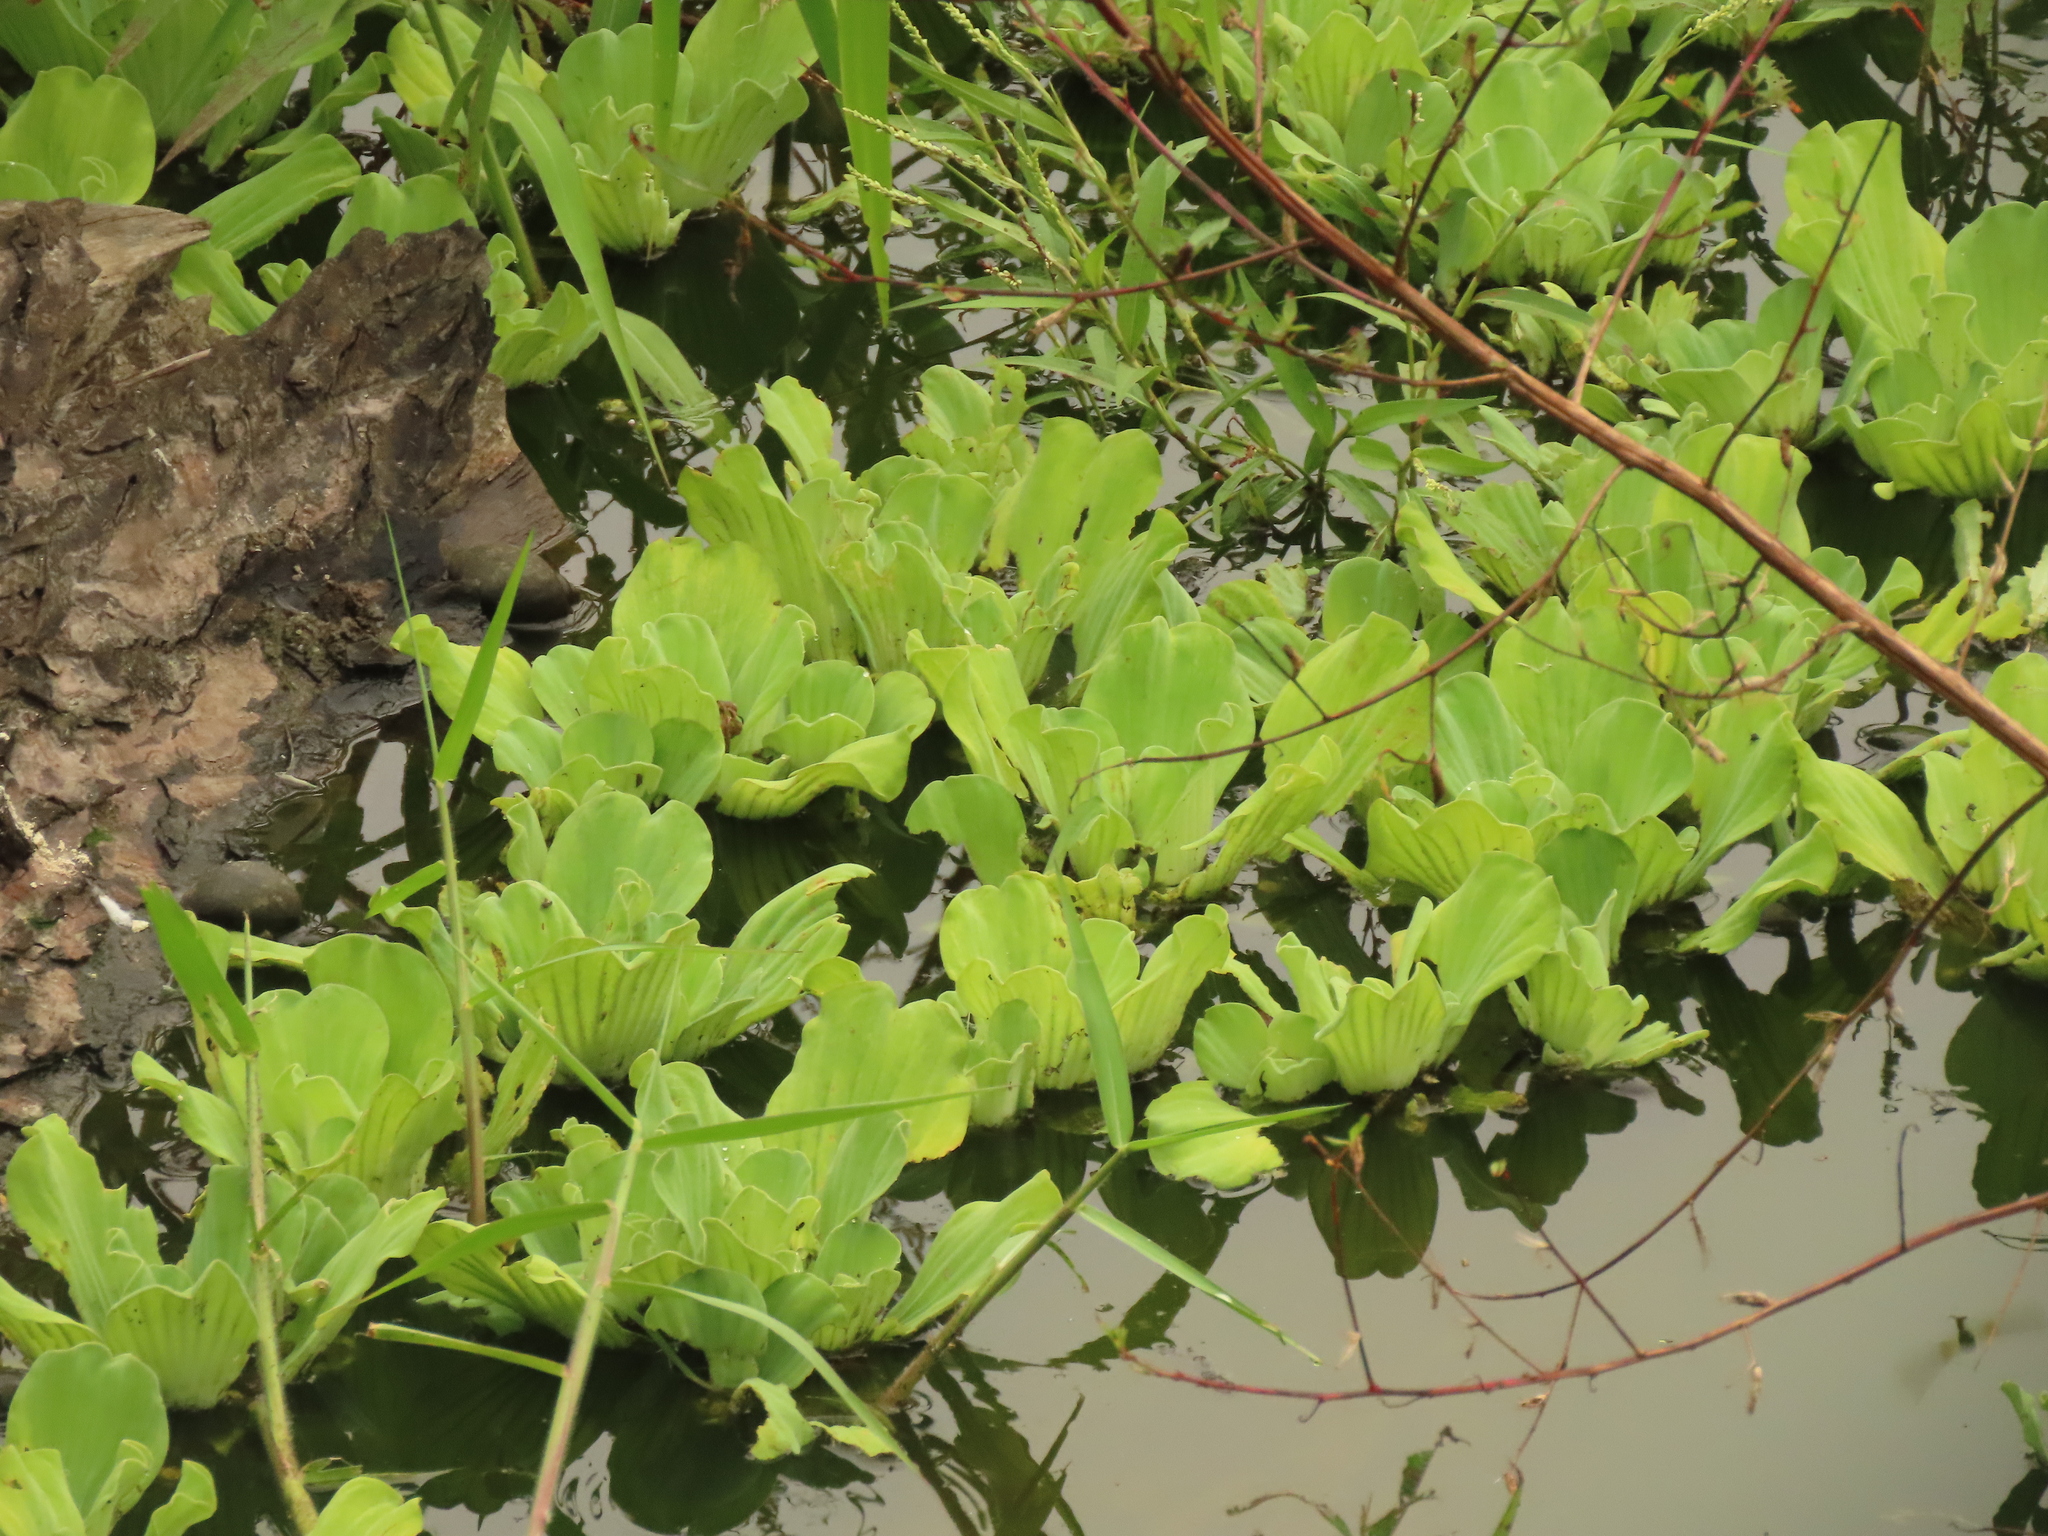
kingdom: Plantae
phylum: Tracheophyta
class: Liliopsida
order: Alismatales
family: Araceae
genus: Pistia
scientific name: Pistia stratiotes
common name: Water lettuce
